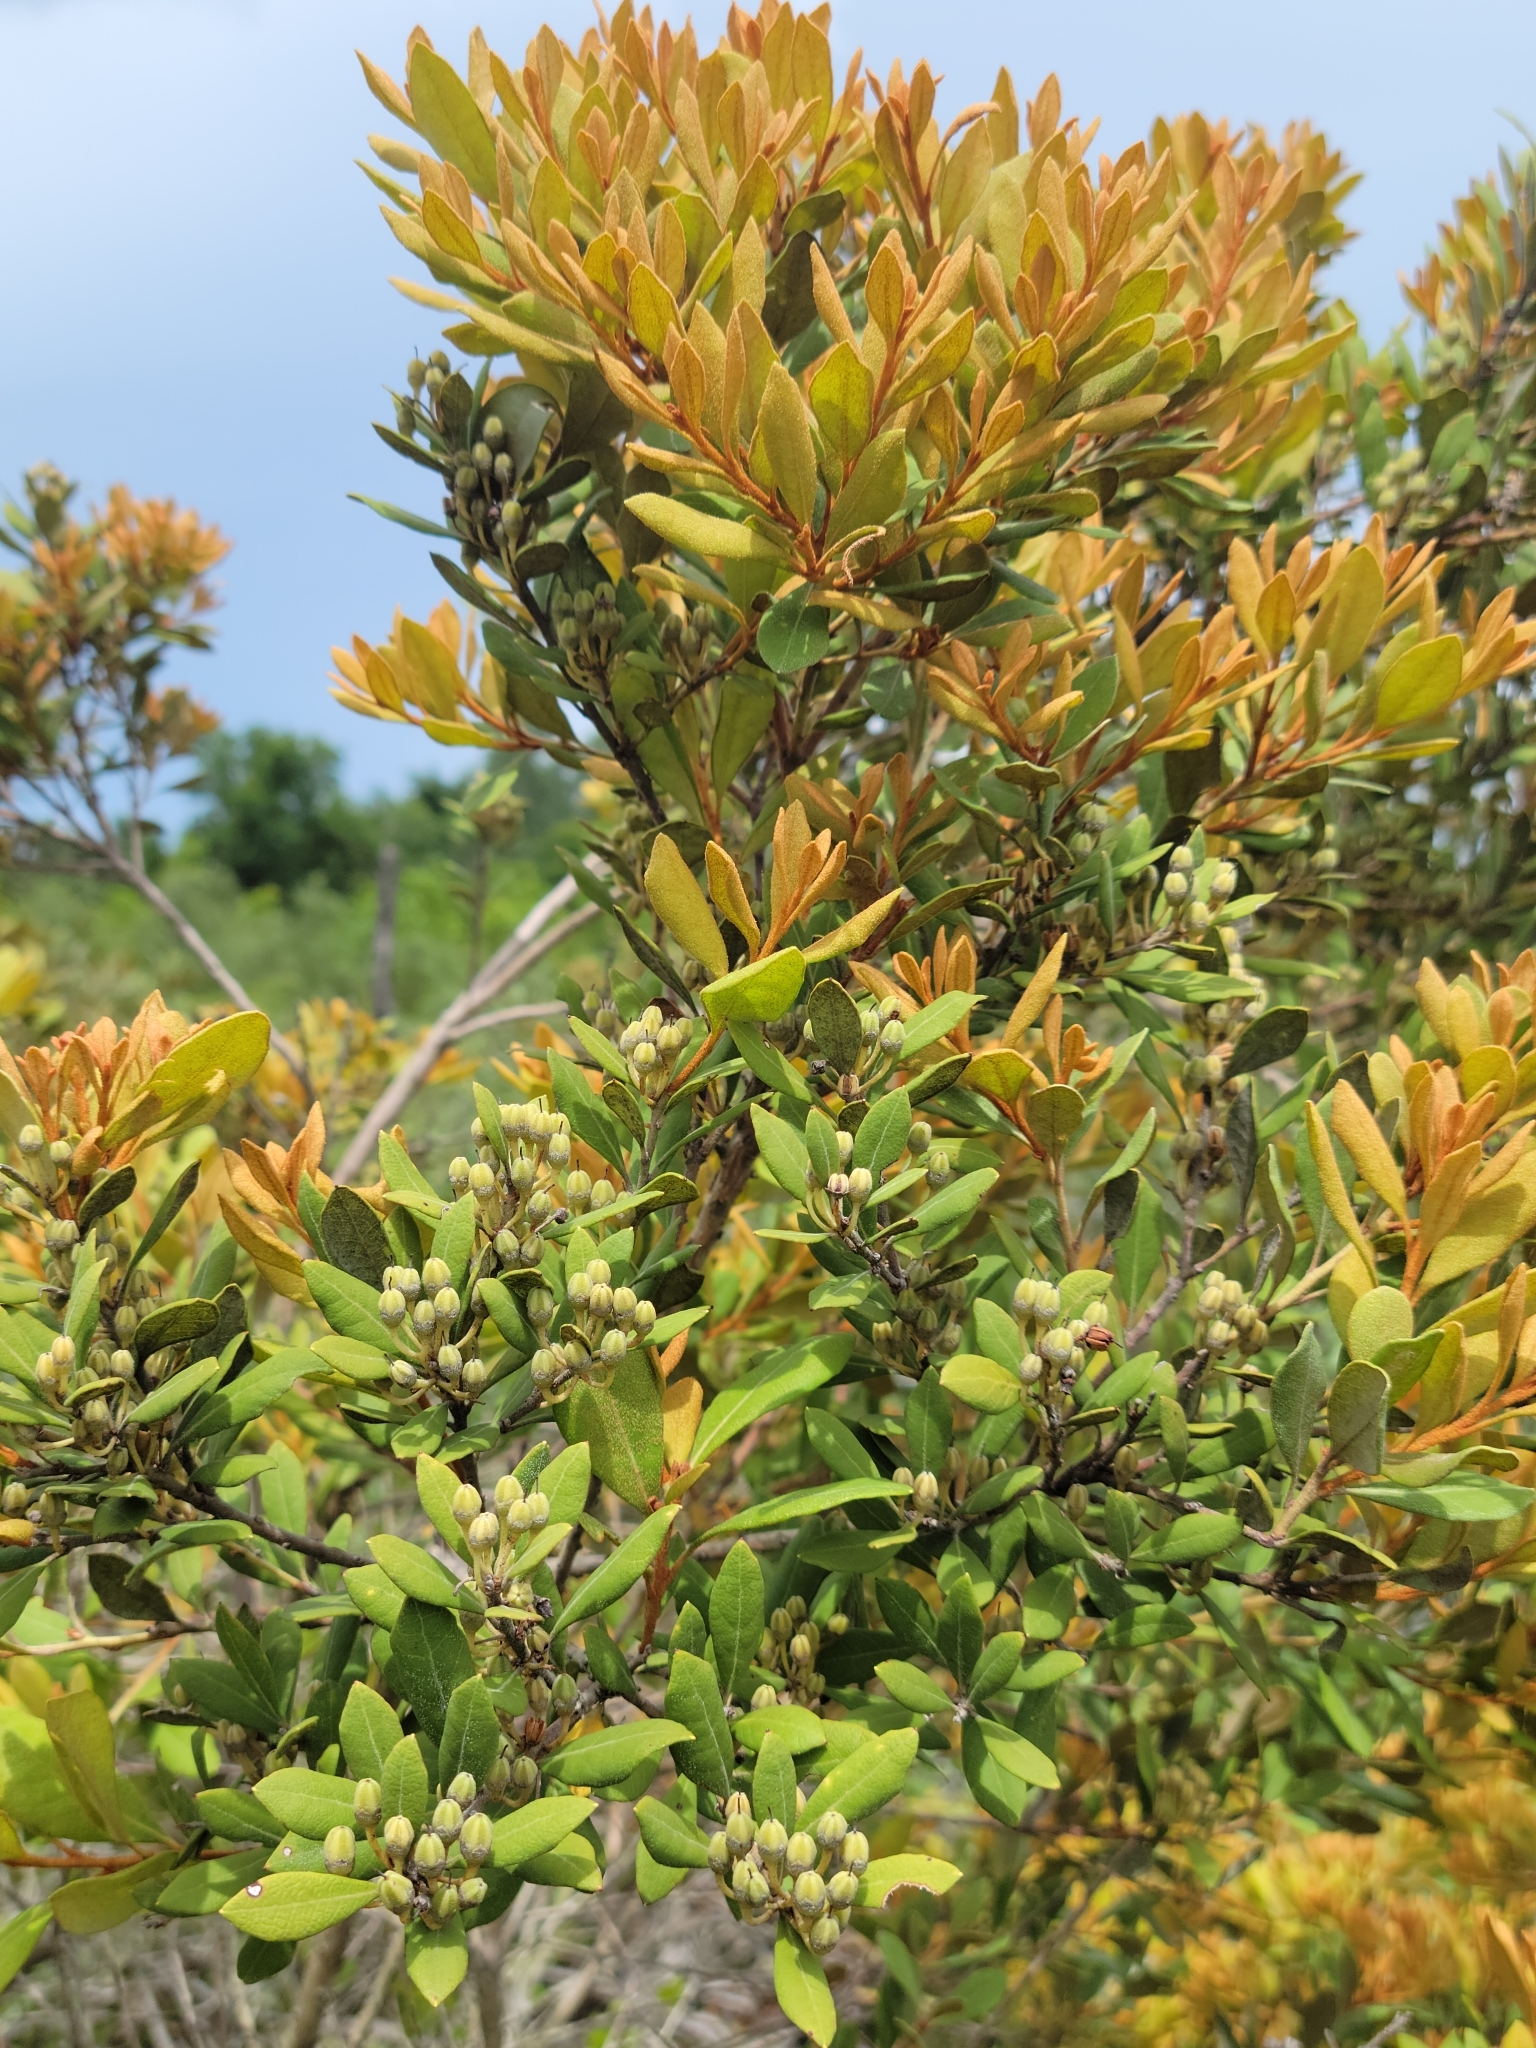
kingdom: Plantae
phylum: Tracheophyta
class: Magnoliopsida
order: Ericales
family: Ericaceae
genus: Lyonia
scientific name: Lyonia ferruginea
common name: Rusty lyonia
